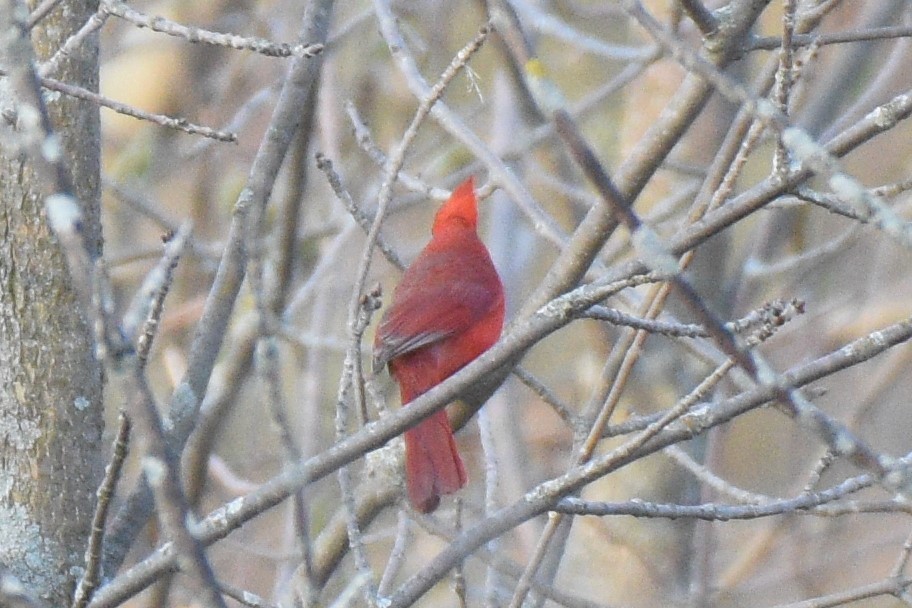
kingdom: Animalia
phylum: Chordata
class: Aves
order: Passeriformes
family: Cardinalidae
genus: Cardinalis
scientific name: Cardinalis cardinalis
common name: Northern cardinal
